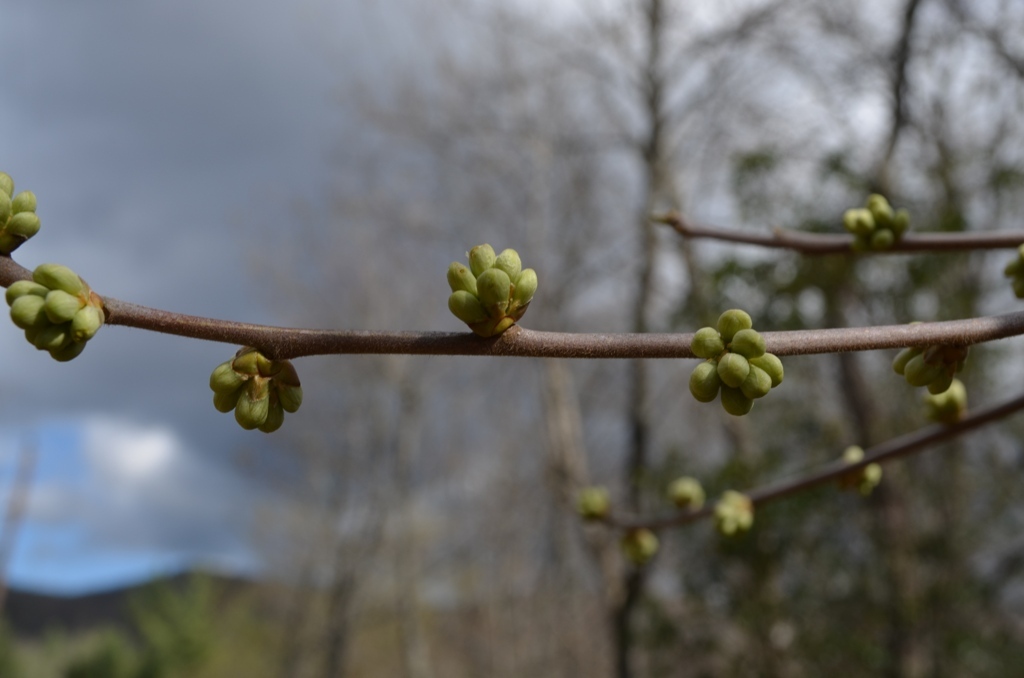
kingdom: Plantae
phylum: Tracheophyta
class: Magnoliopsida
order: Ericales
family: Symplocaceae
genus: Symplocos
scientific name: Symplocos tinctoria
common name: Horse-sugar
